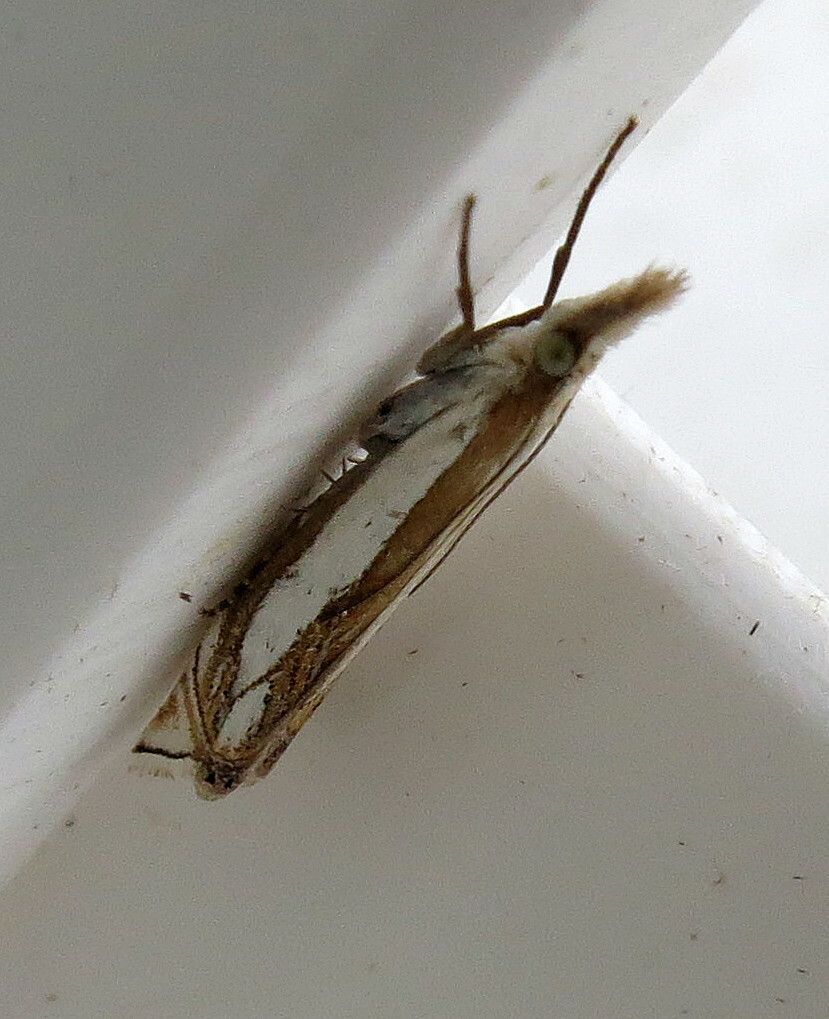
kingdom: Animalia
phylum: Arthropoda
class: Insecta
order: Lepidoptera
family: Crambidae
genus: Crambus
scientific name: Crambus pascuella
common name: Inlaid grass-veneer
